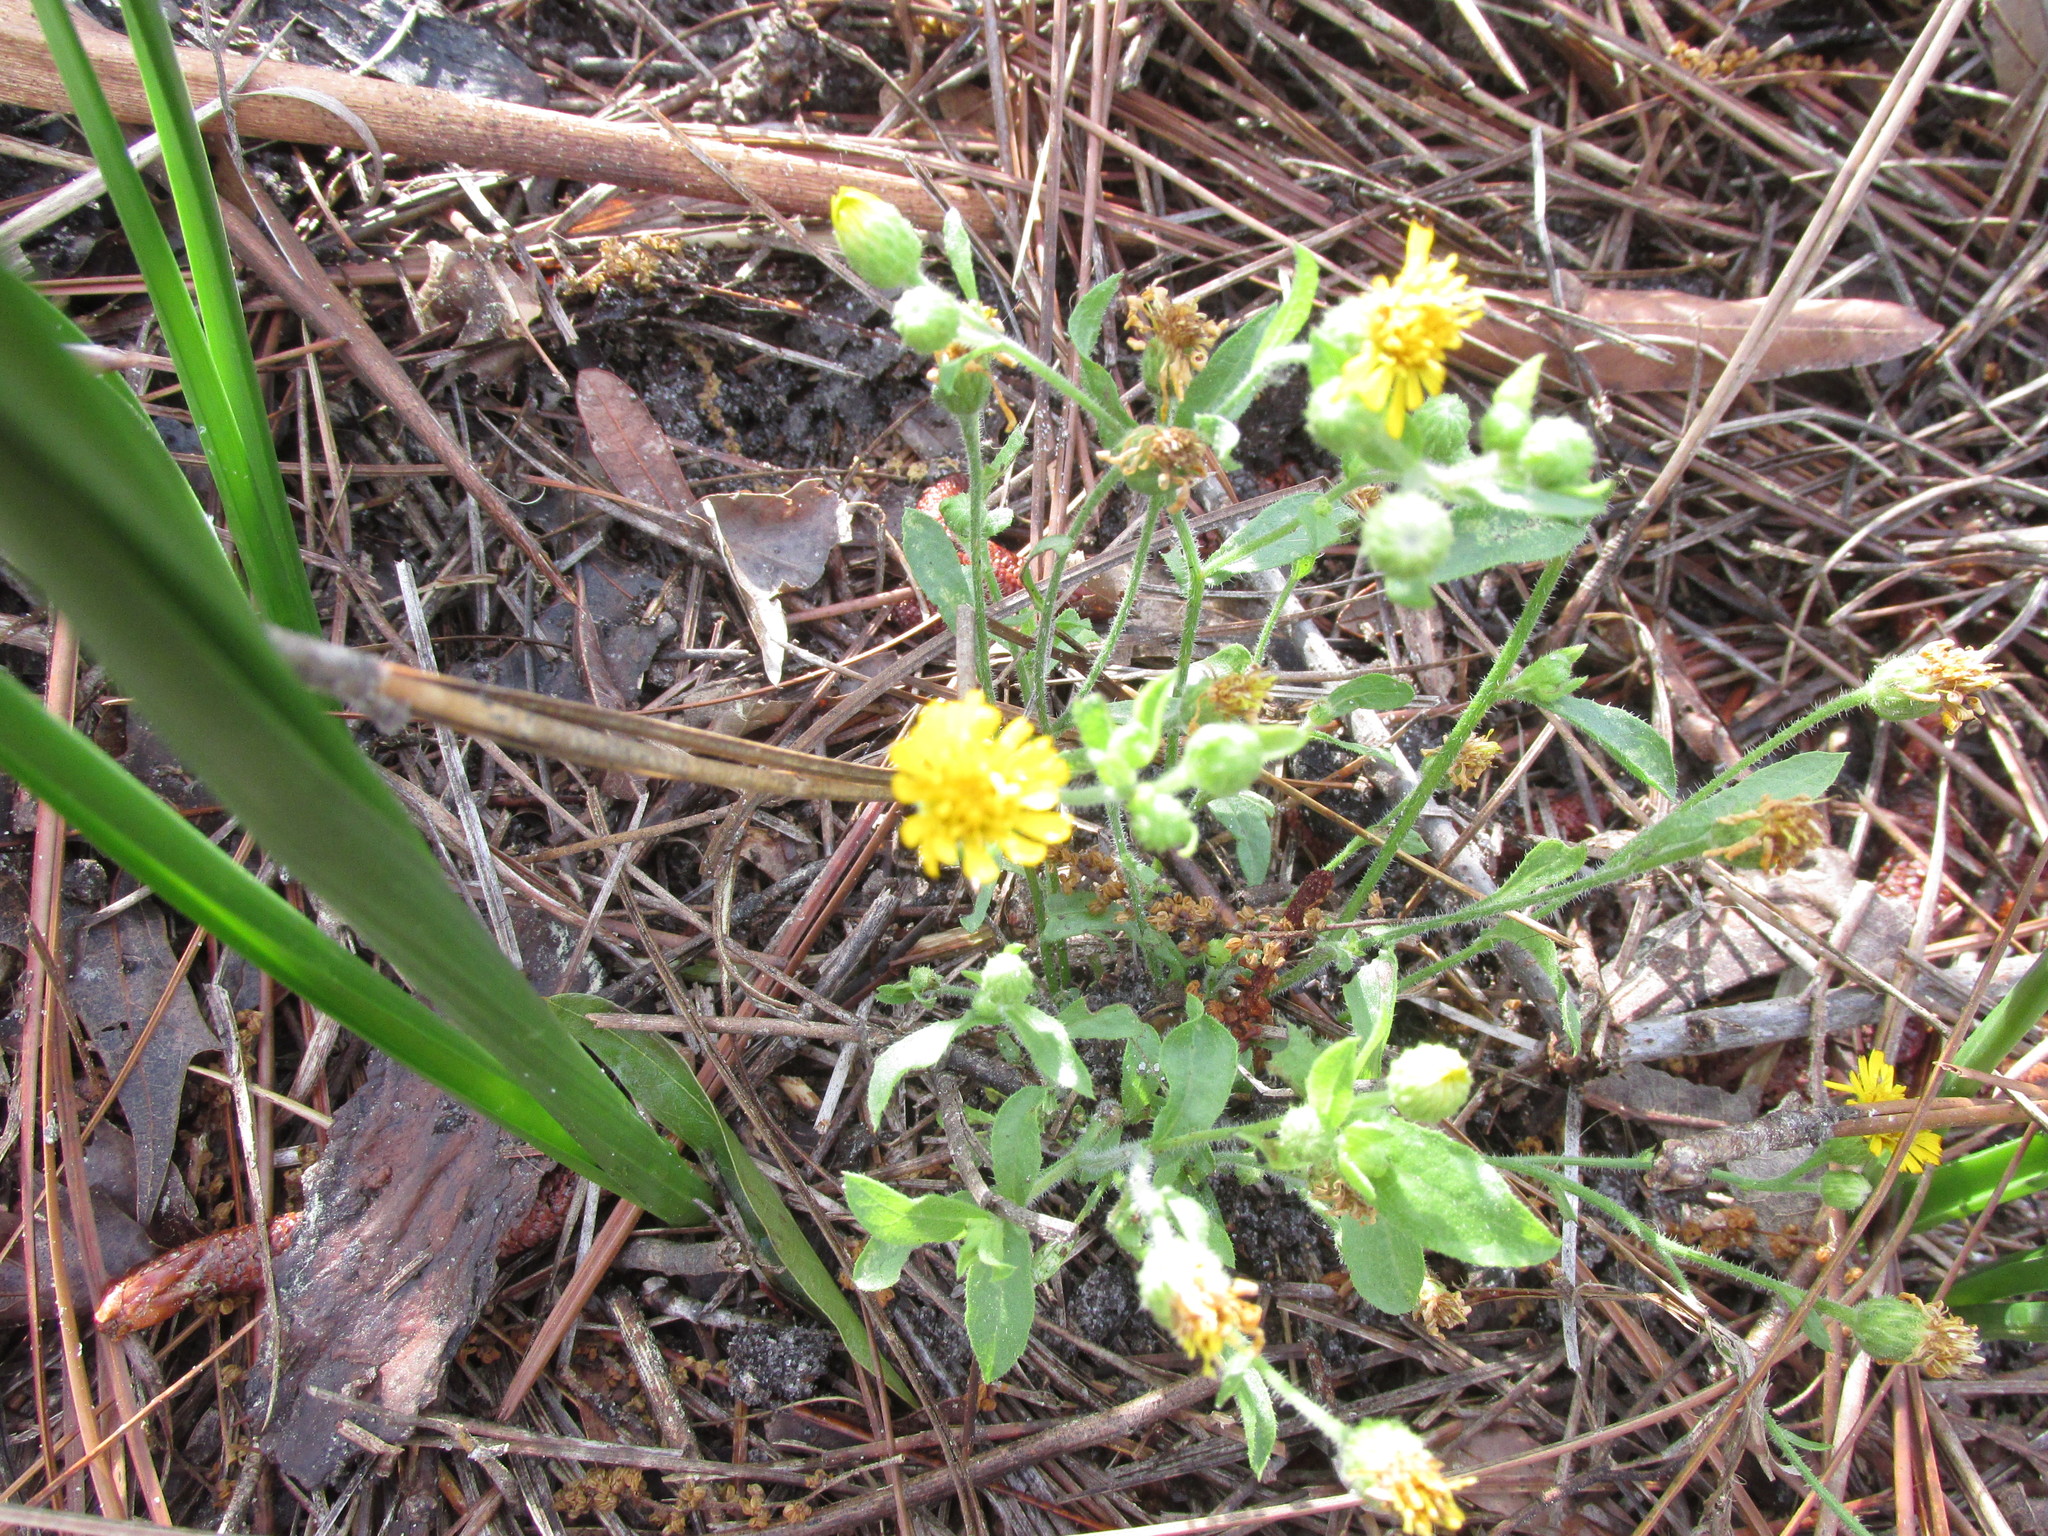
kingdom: Plantae
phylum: Tracheophyta
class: Magnoliopsida
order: Asterales
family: Asteraceae
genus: Heterotheca
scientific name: Heterotheca subaxillaris
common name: Camphorweed
